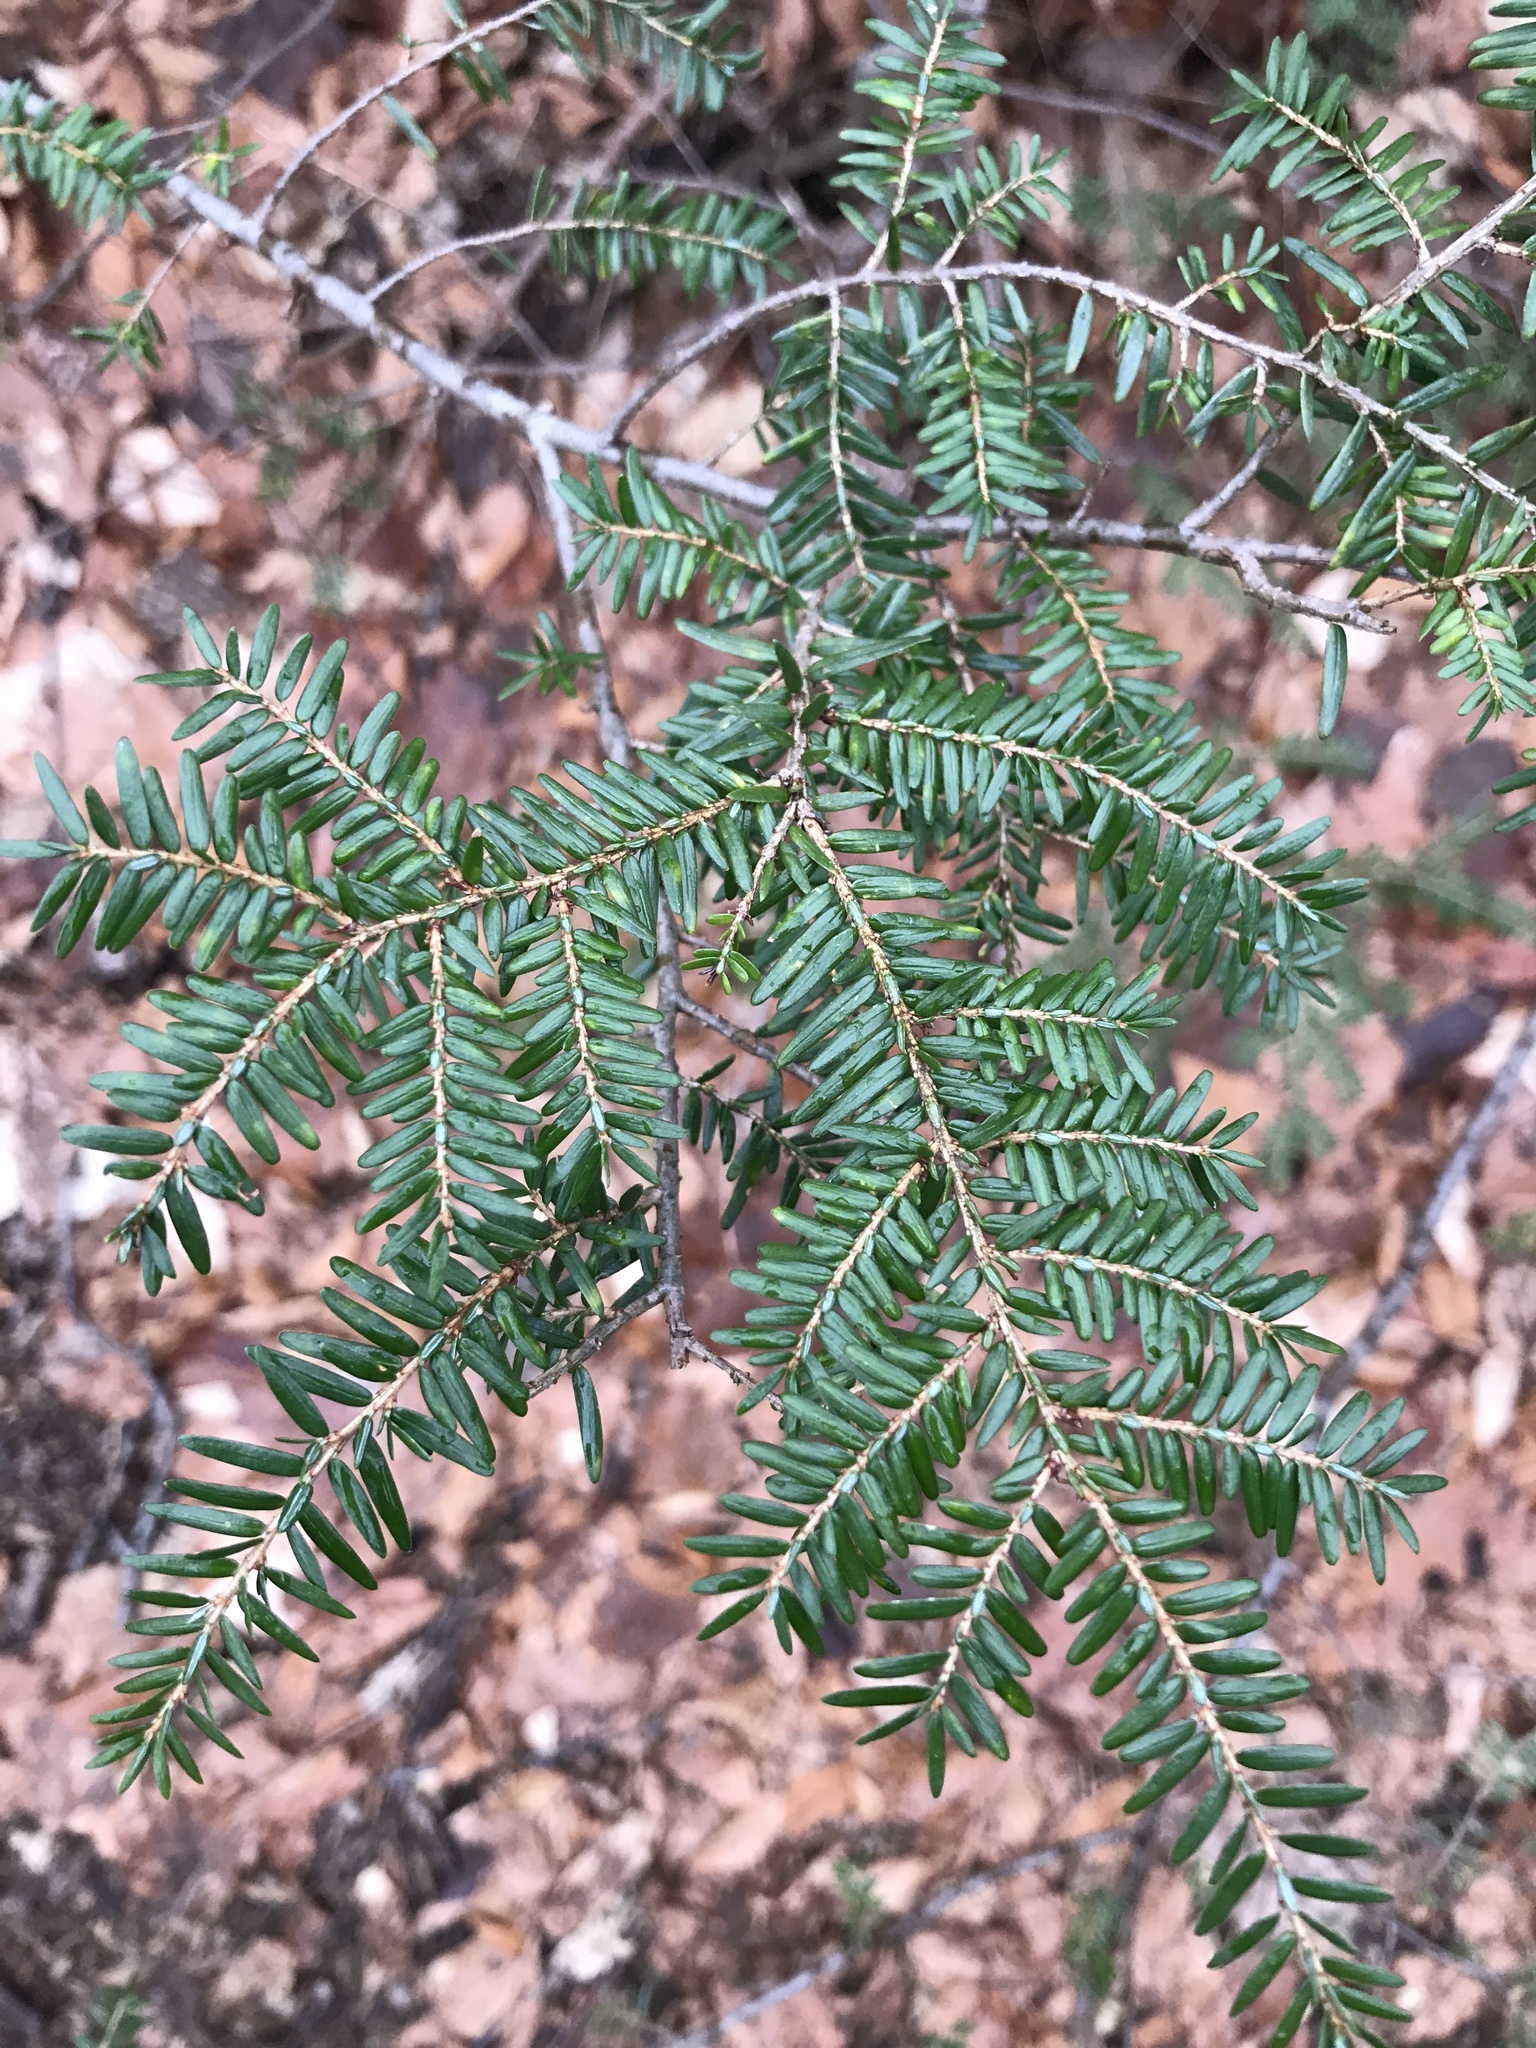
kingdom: Plantae
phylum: Tracheophyta
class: Pinopsida
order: Pinales
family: Pinaceae
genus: Tsuga
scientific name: Tsuga canadensis
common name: Eastern hemlock
